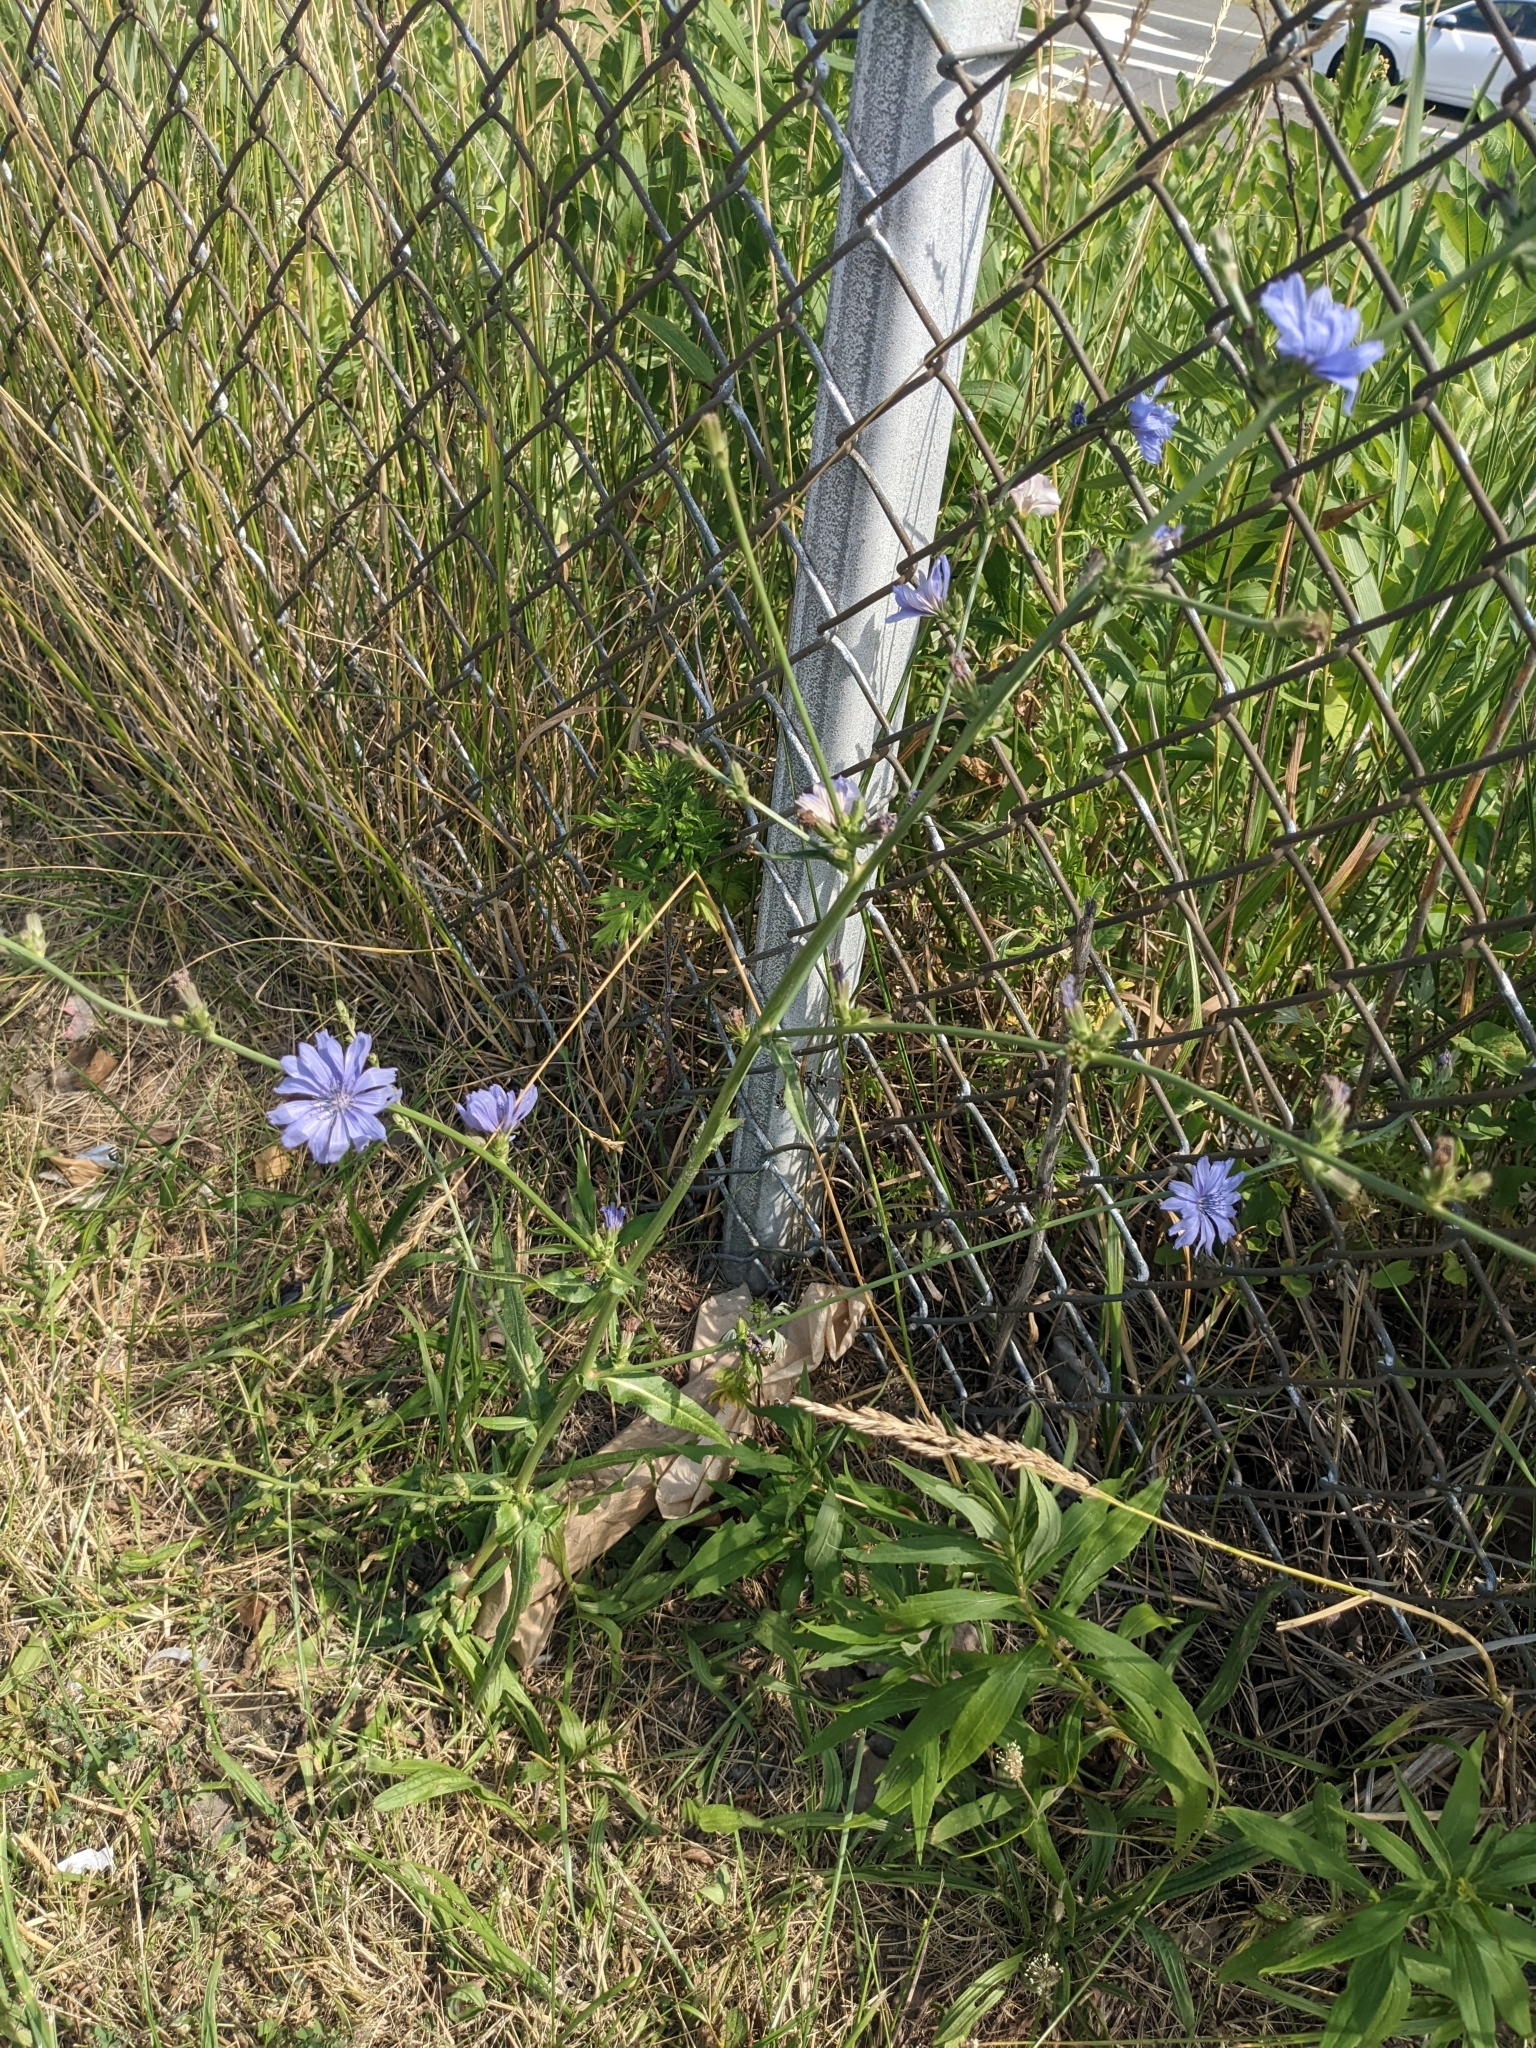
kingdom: Plantae
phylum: Tracheophyta
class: Magnoliopsida
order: Asterales
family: Asteraceae
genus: Cichorium
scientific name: Cichorium intybus
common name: Chicory
